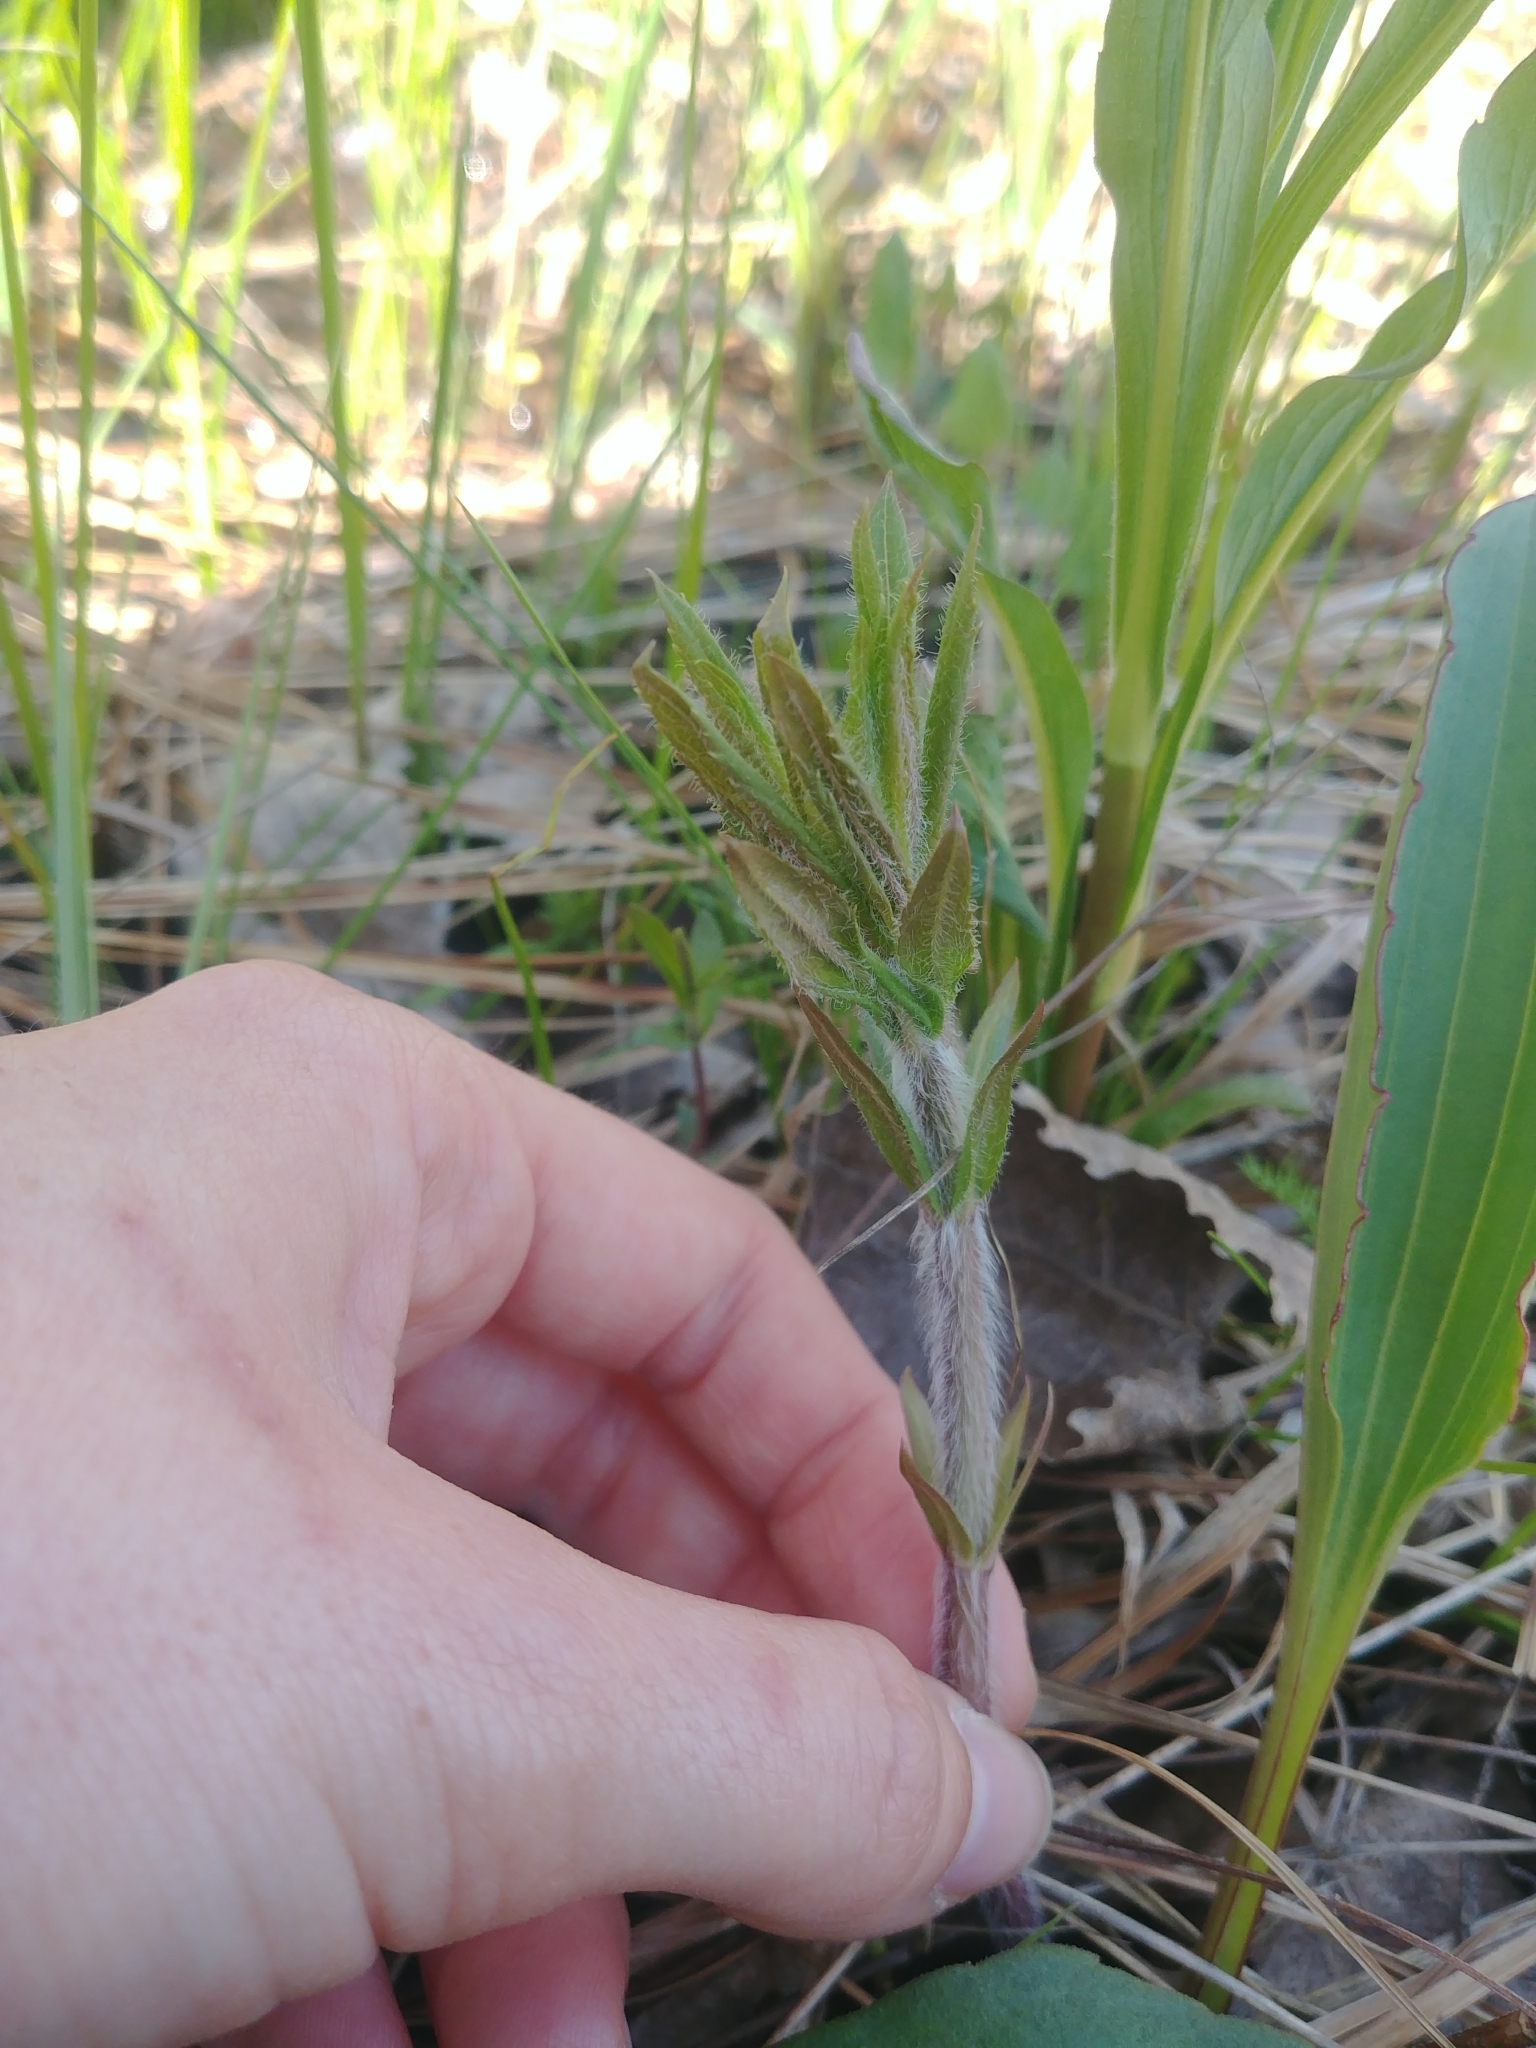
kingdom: Plantae
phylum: Tracheophyta
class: Magnoliopsida
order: Lamiales
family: Plantaginaceae
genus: Veronicastrum
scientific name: Veronicastrum virginicum
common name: Blackroot
